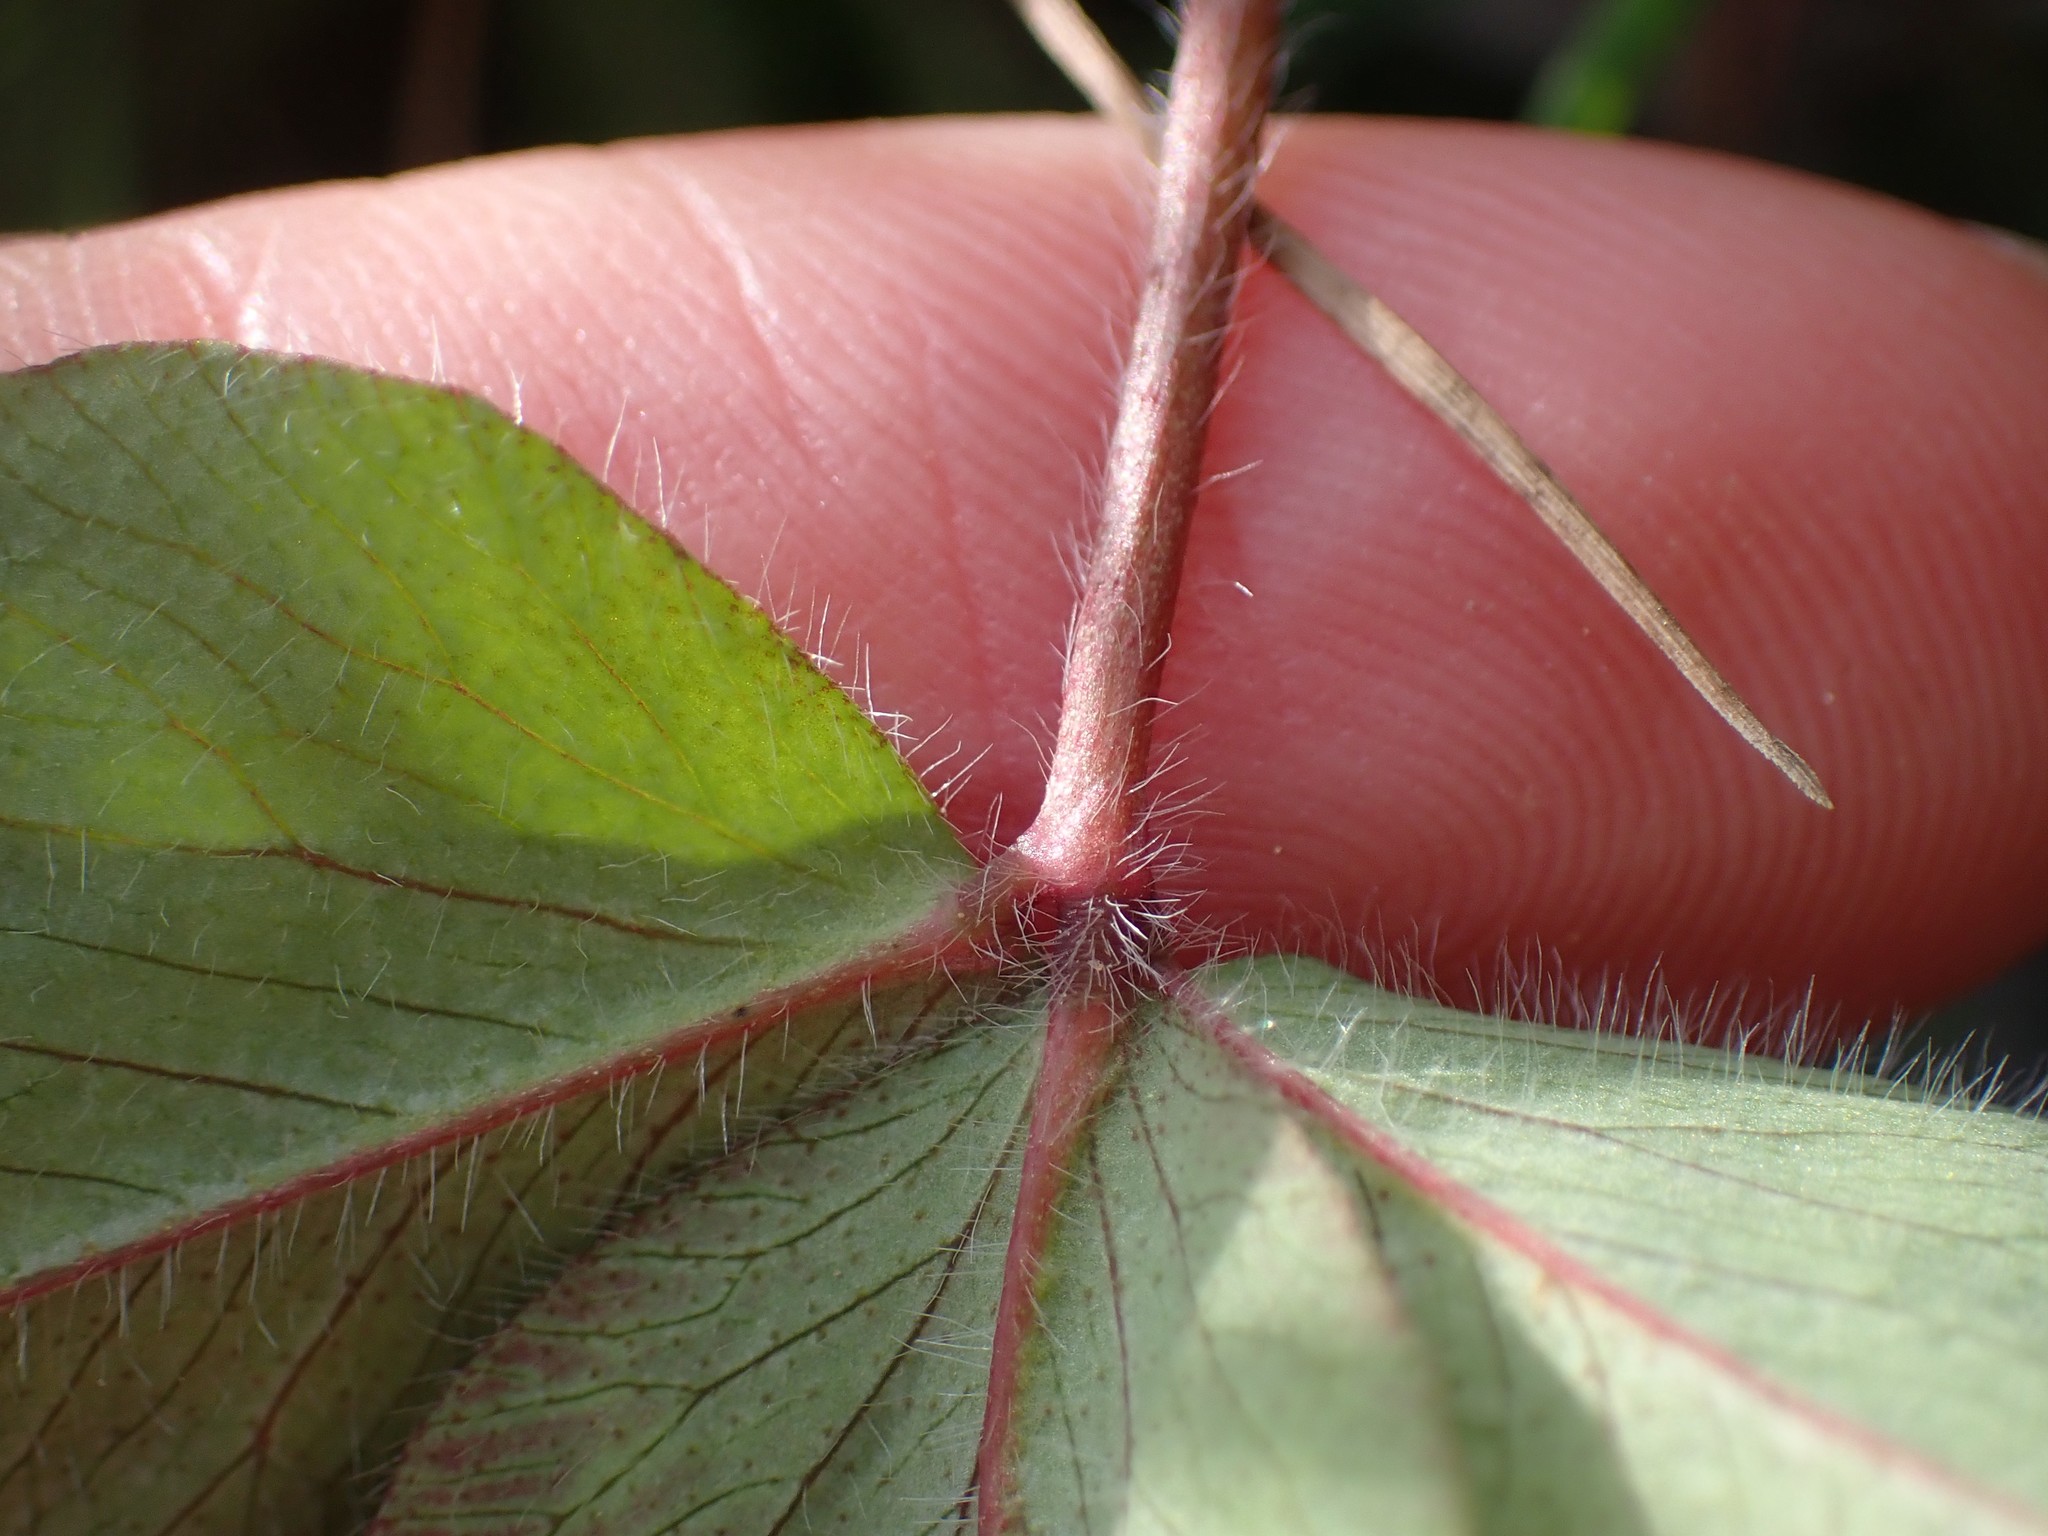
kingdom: Plantae
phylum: Tracheophyta
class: Magnoliopsida
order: Fabales
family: Fabaceae
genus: Trifolium
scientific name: Trifolium pratense
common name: Red clover
